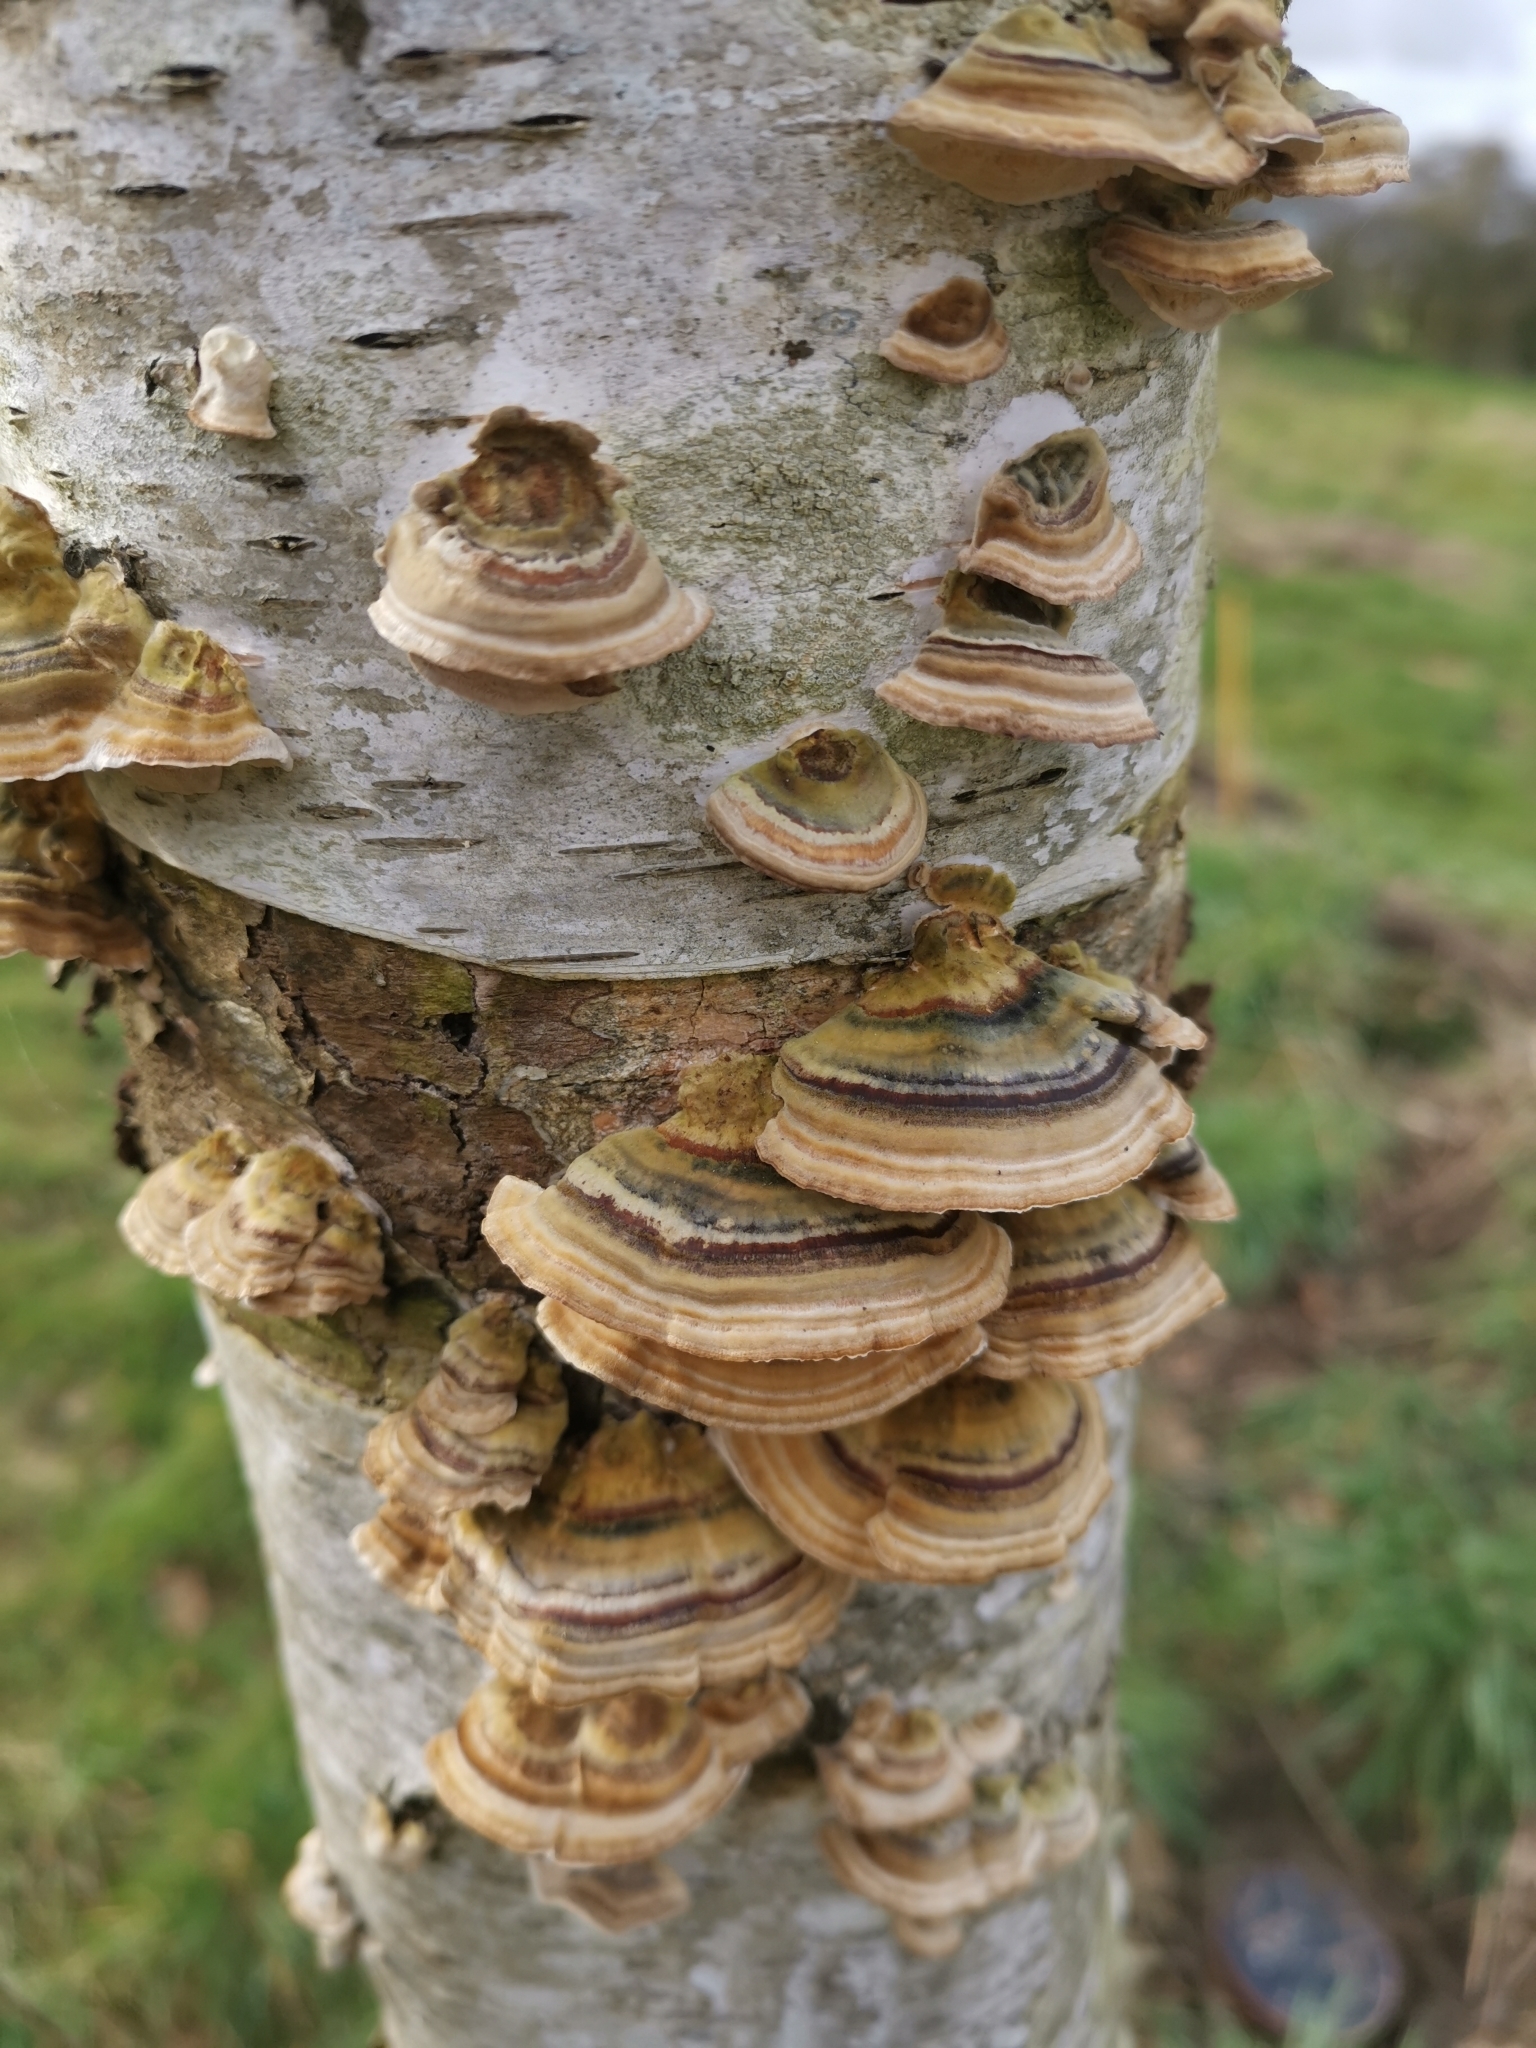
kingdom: Fungi
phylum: Basidiomycota
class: Agaricomycetes
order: Polyporales
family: Polyporaceae
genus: Trametes
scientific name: Trametes versicolor
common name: Turkeytail
